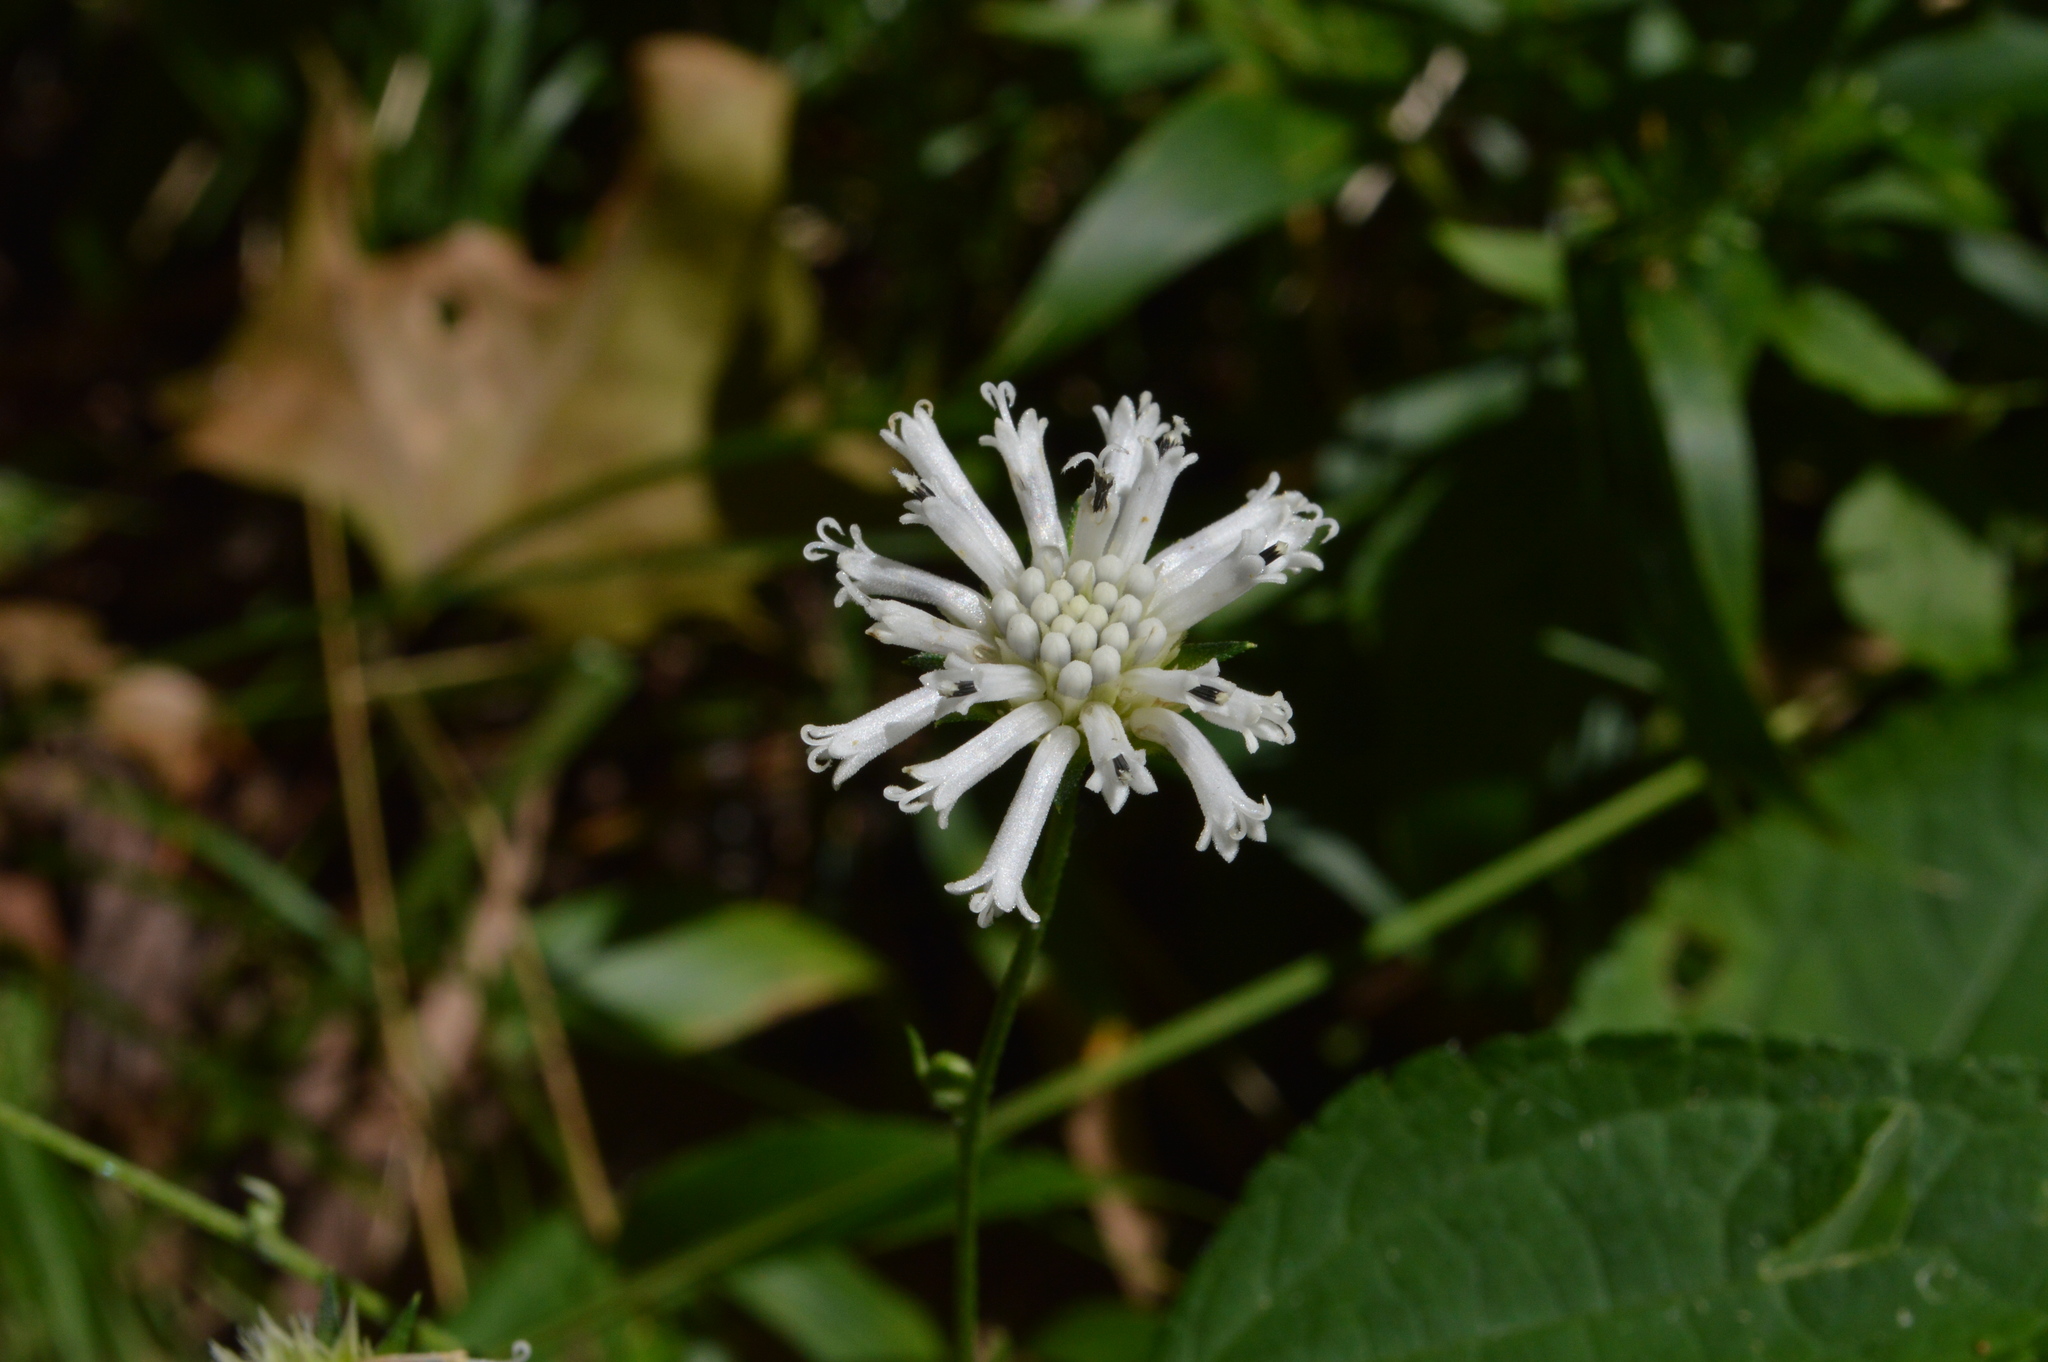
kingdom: Plantae
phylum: Tracheophyta
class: Magnoliopsida
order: Asterales
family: Asteraceae
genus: Melanthera
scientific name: Melanthera nivea
